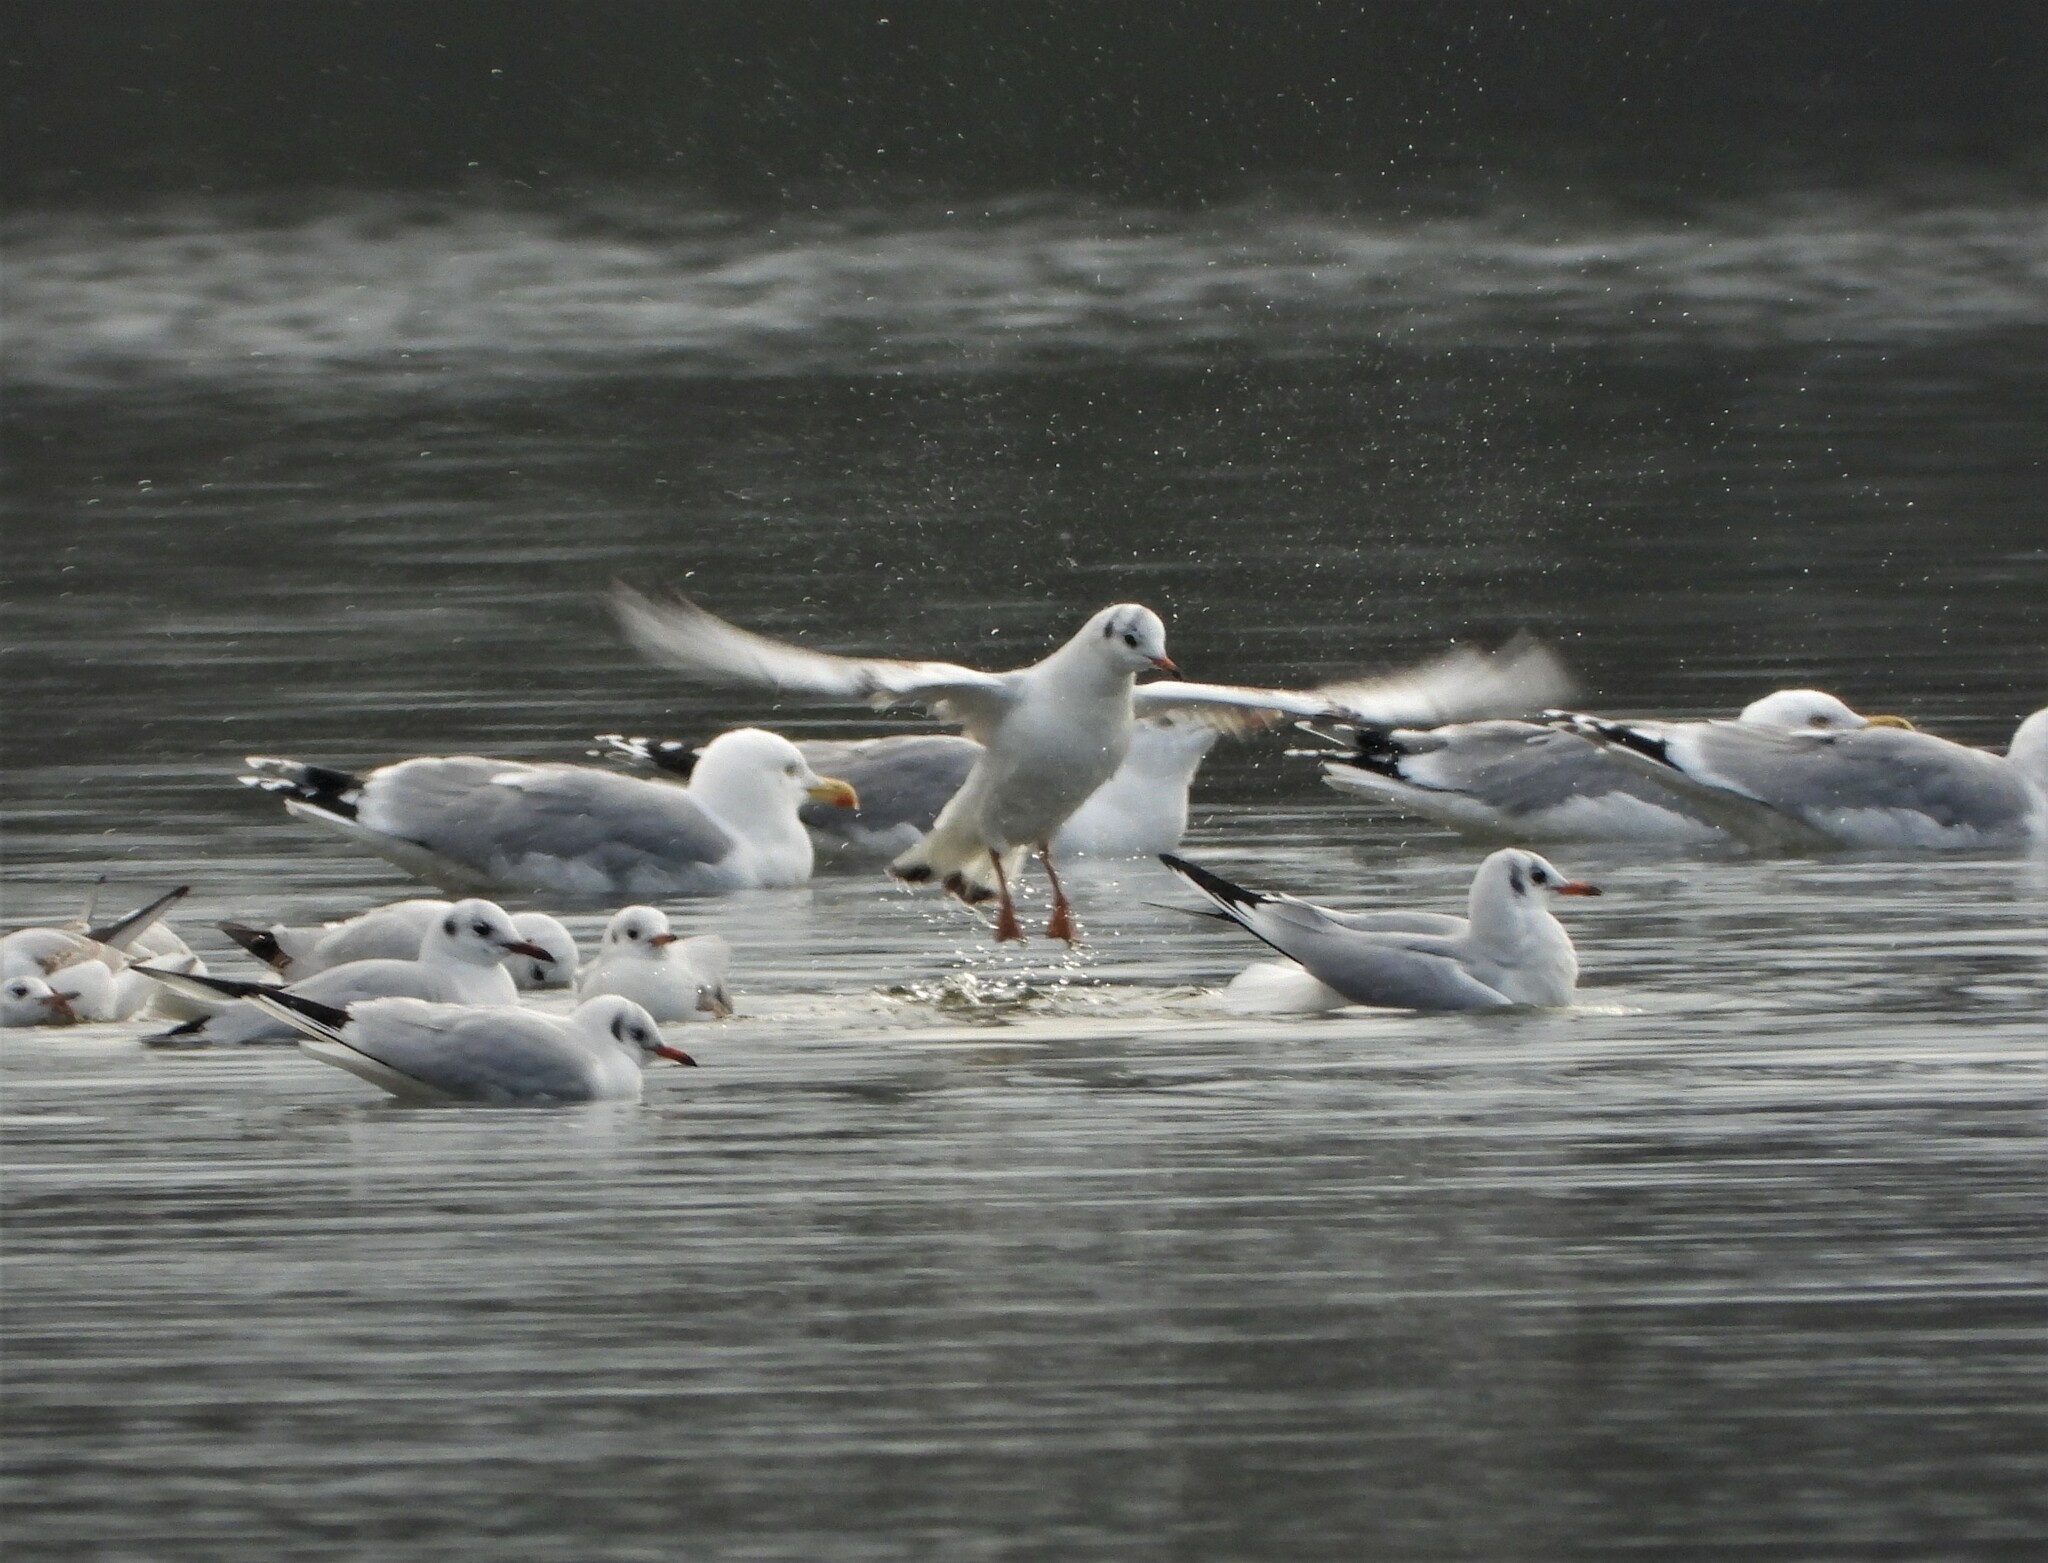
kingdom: Animalia
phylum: Chordata
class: Aves
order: Charadriiformes
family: Laridae
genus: Chroicocephalus
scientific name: Chroicocephalus ridibundus
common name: Black-headed gull
